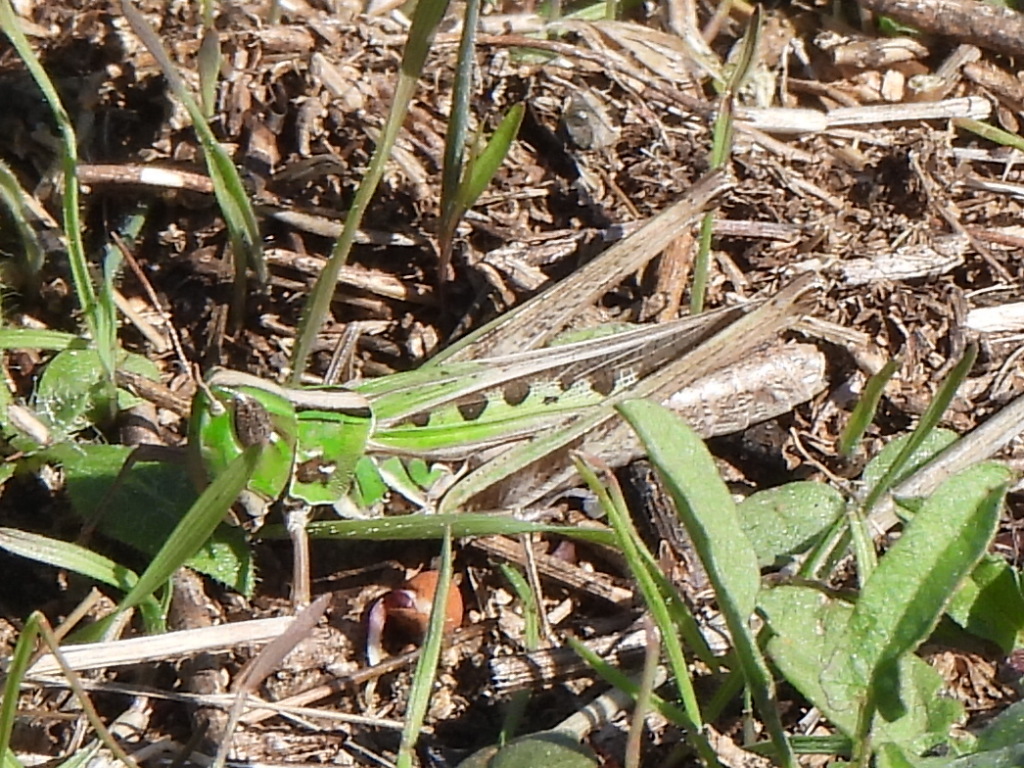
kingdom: Animalia
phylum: Arthropoda
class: Insecta
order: Orthoptera
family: Acrididae
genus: Syrbula
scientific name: Syrbula admirabilis
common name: Handsome grasshopper
